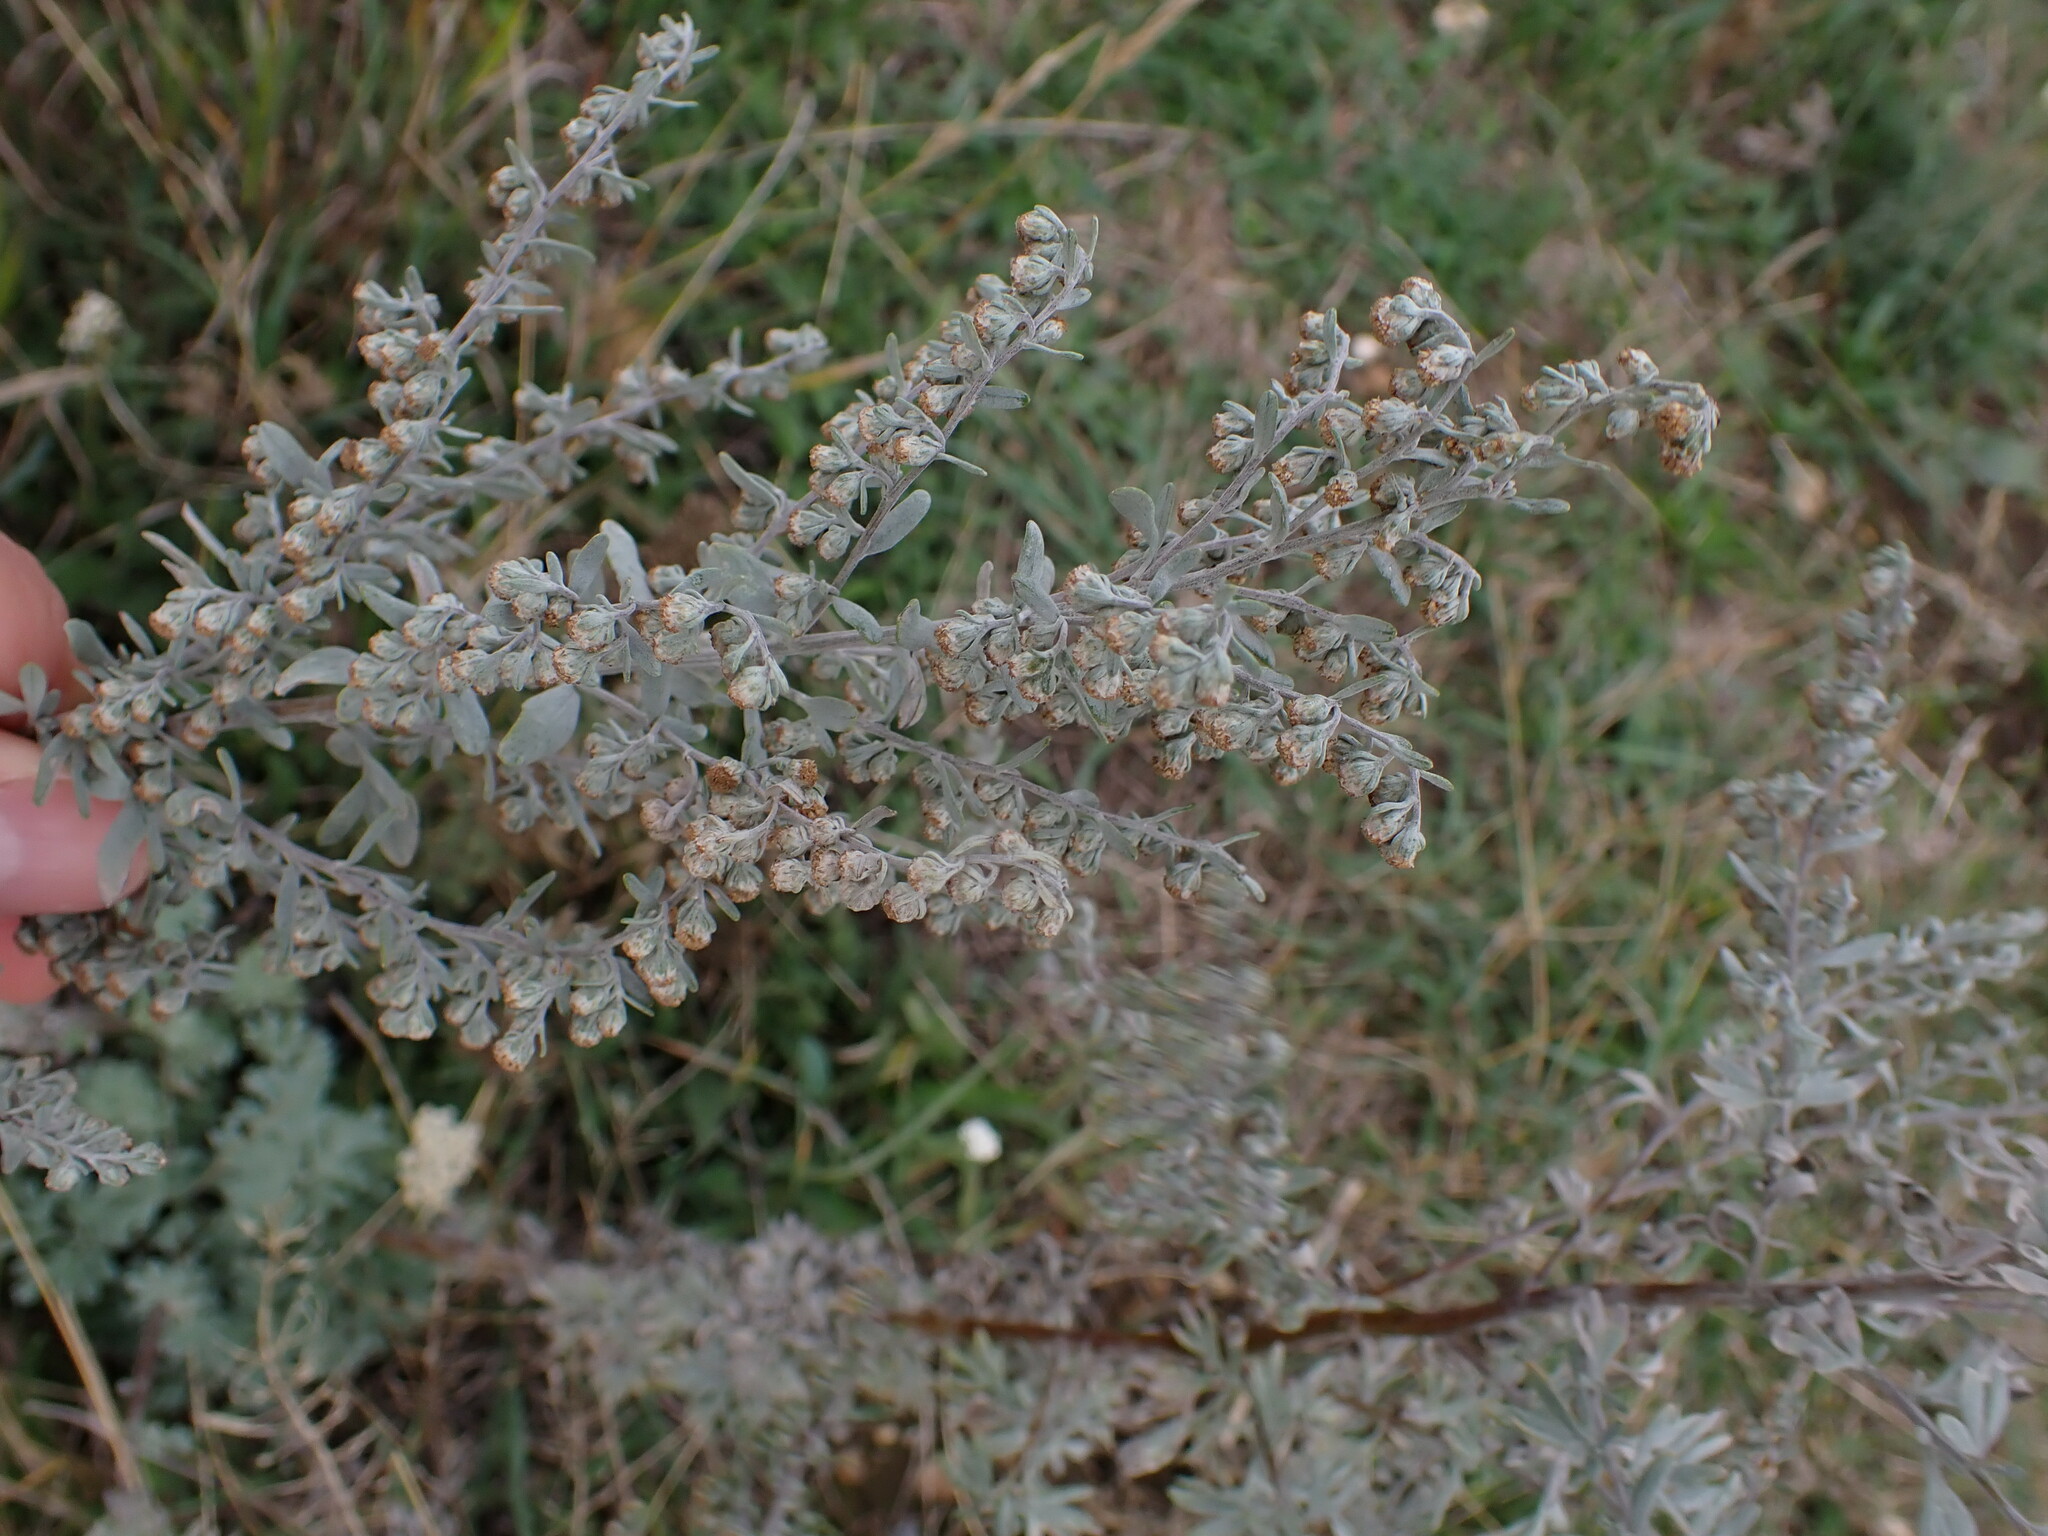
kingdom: Plantae
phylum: Tracheophyta
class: Magnoliopsida
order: Asterales
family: Asteraceae
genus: Artemisia
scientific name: Artemisia absinthium
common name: Wormwood
